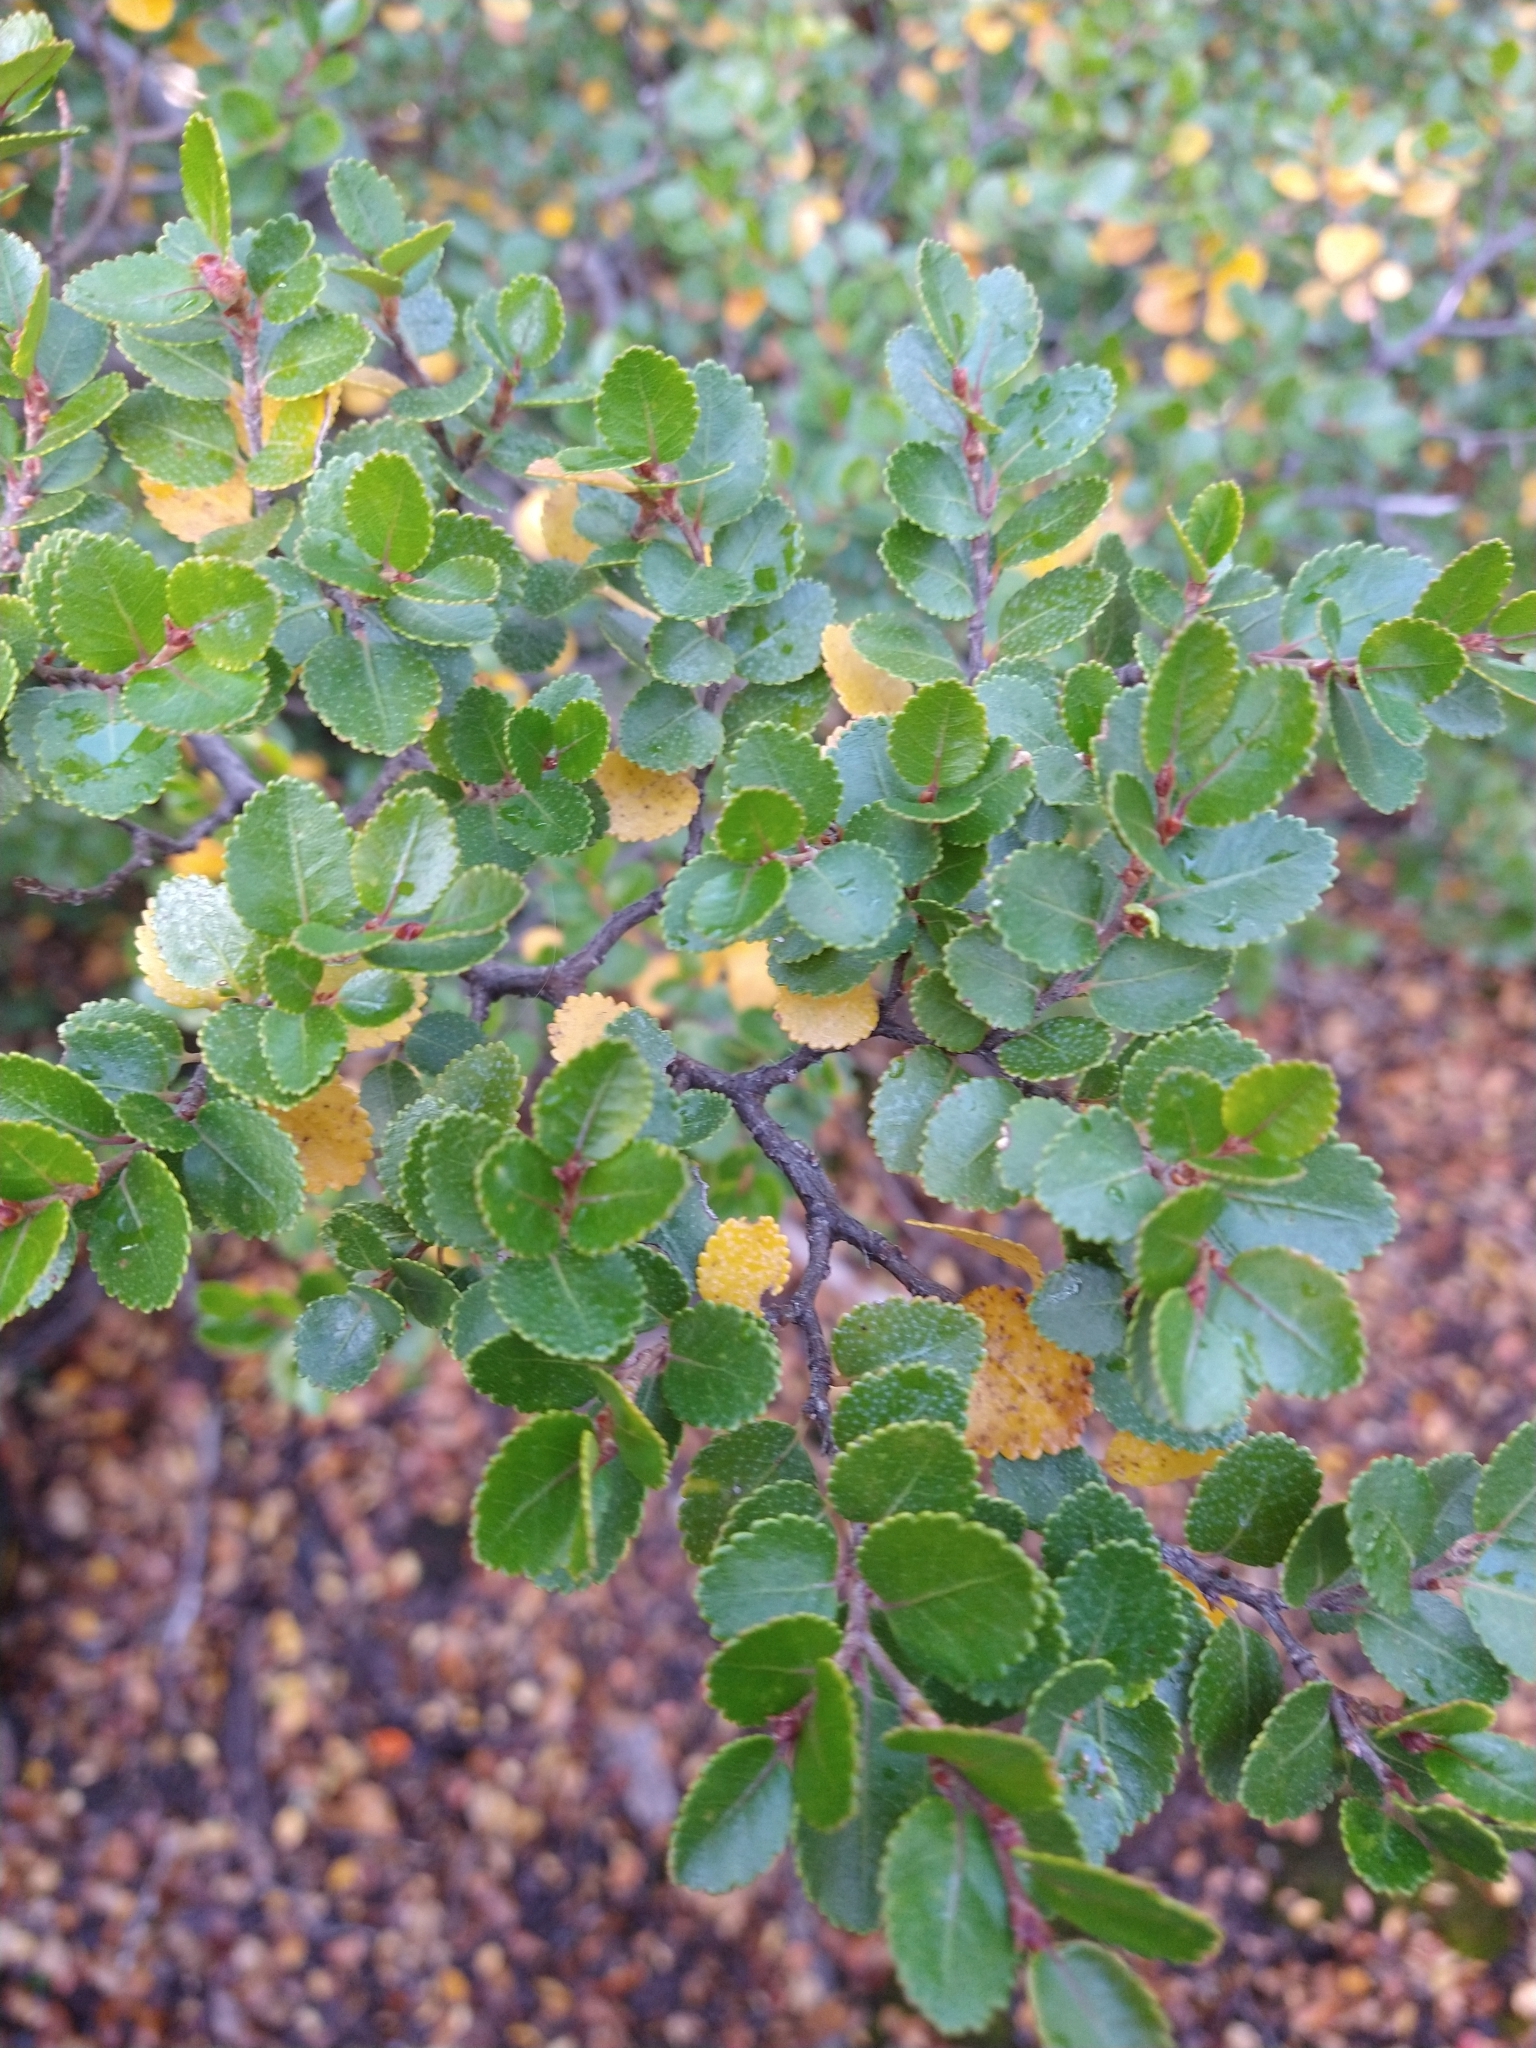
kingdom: Plantae
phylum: Tracheophyta
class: Magnoliopsida
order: Fagales
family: Nothofagaceae
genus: Nothofagus
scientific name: Nothofagus betuloides
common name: Magellan's beech
